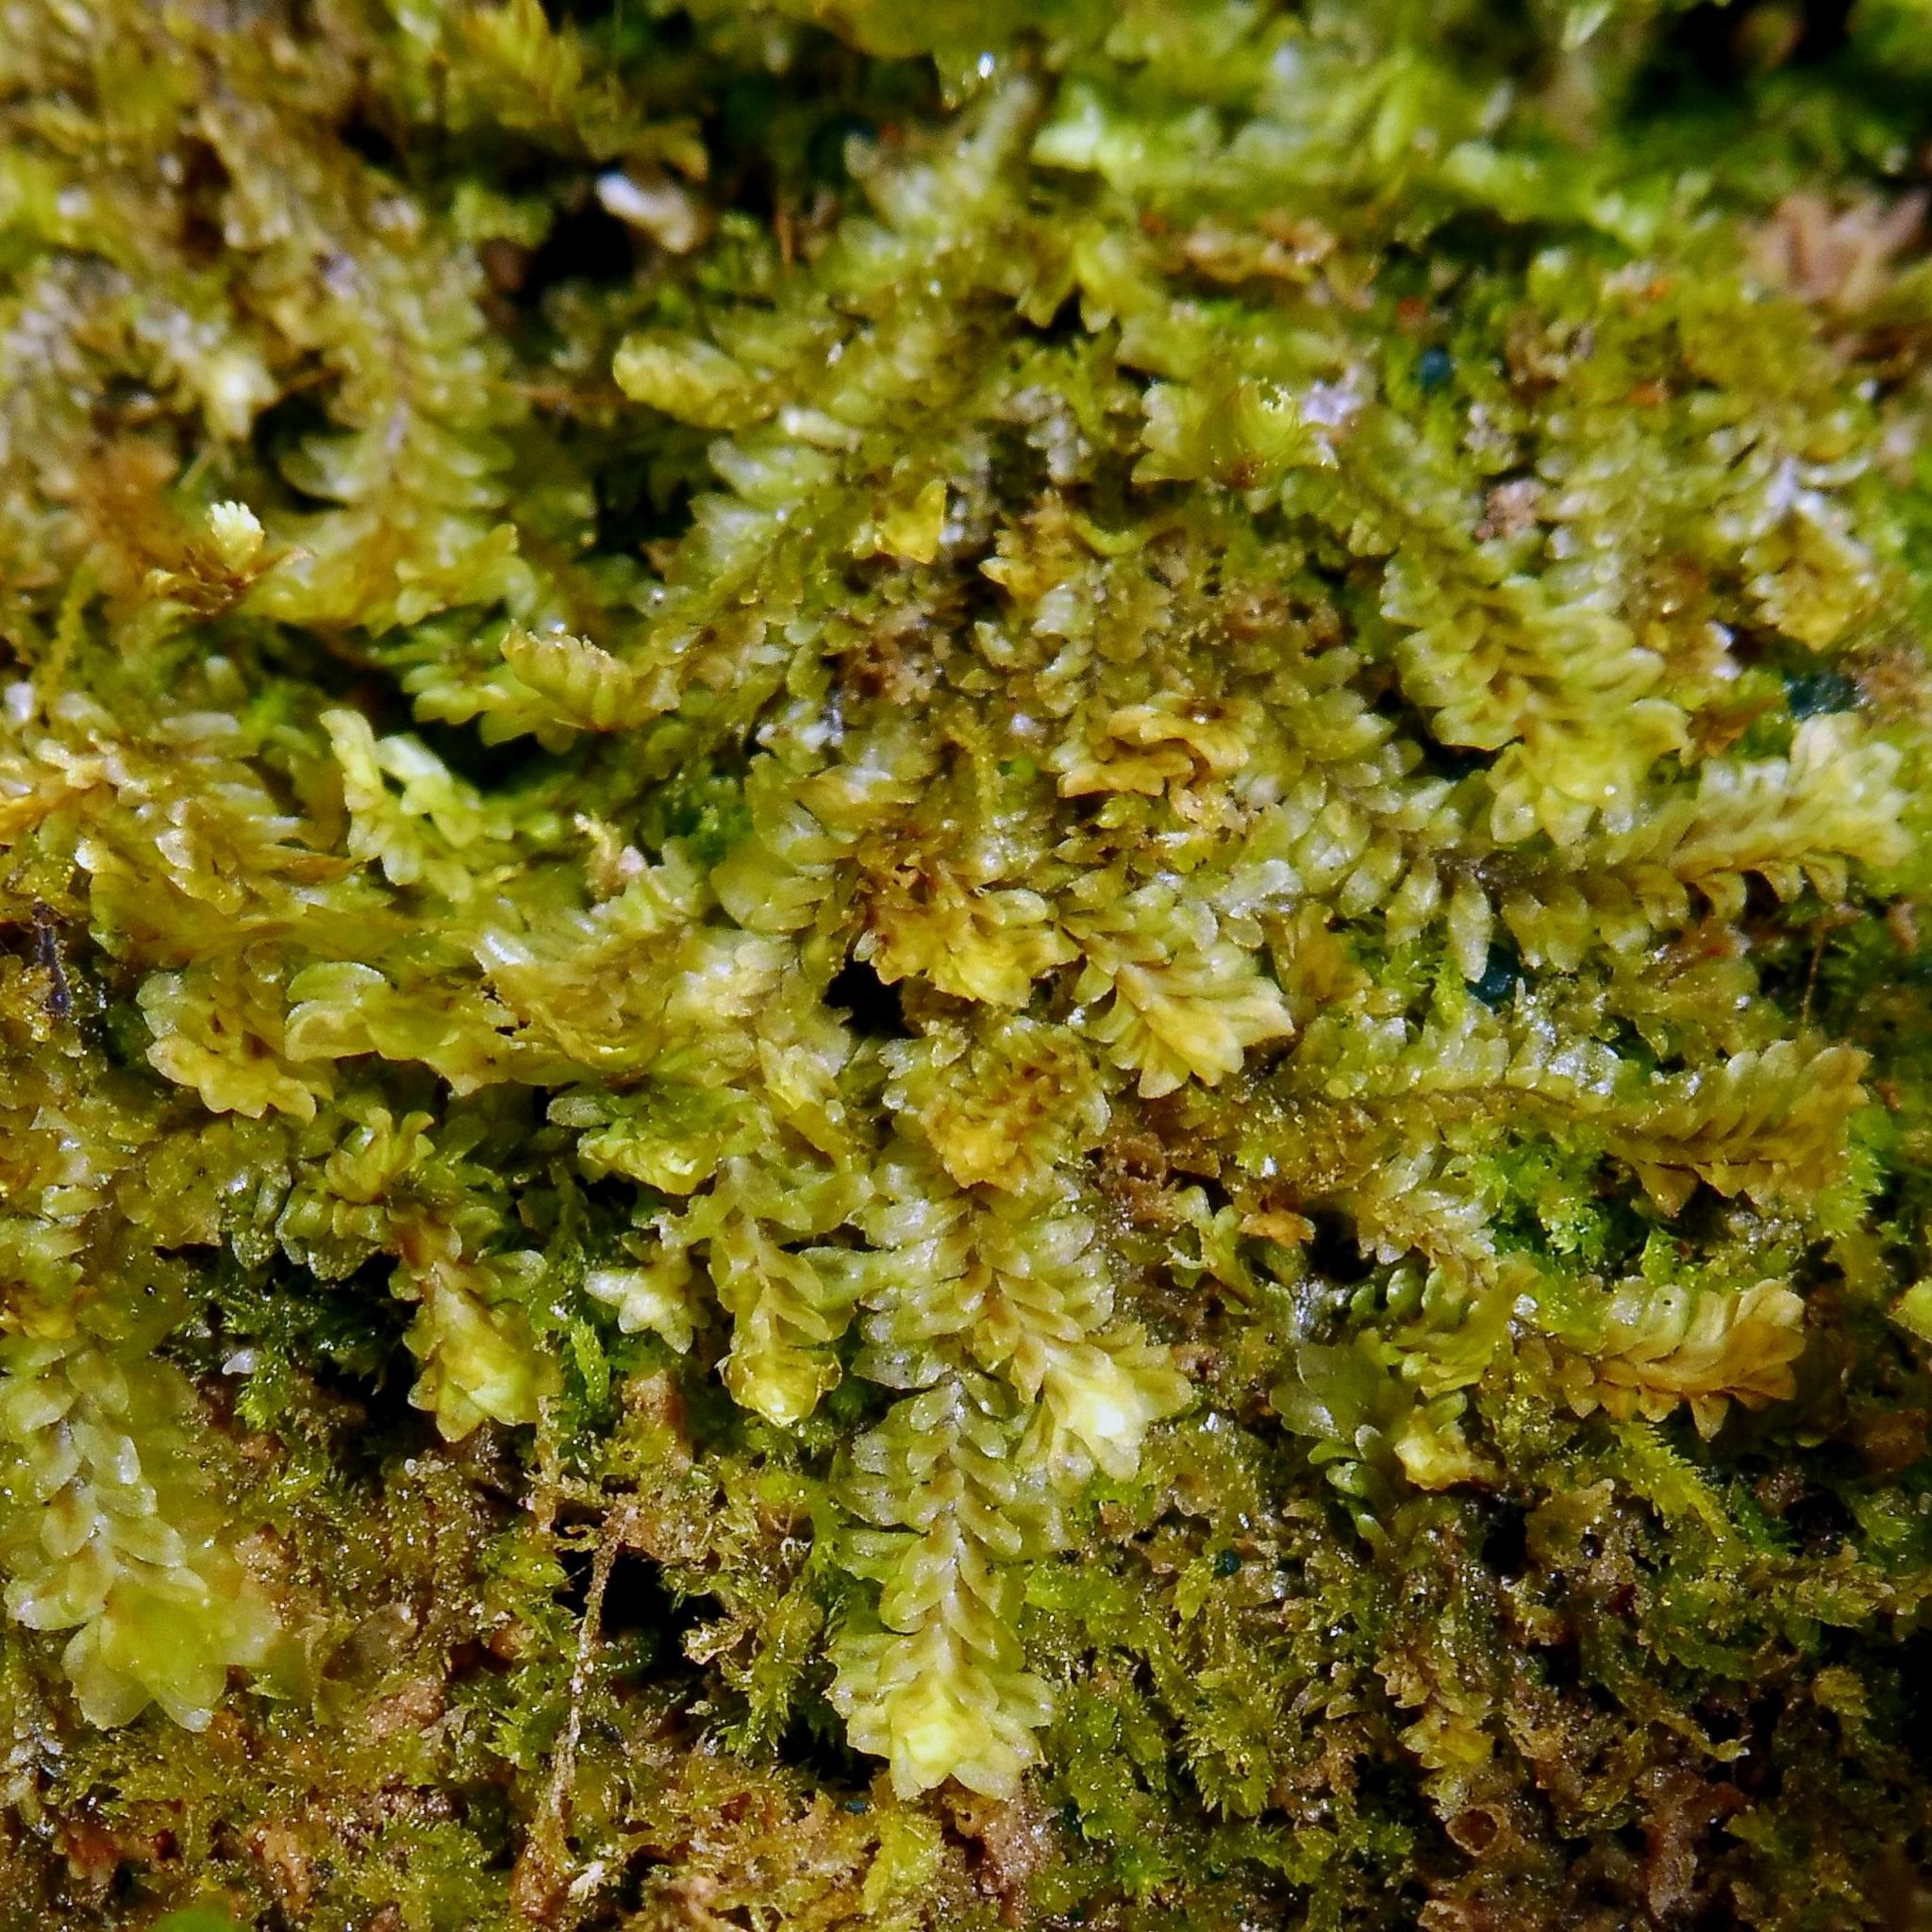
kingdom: Plantae
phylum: Marchantiophyta
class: Jungermanniopsida
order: Jungermanniales
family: Scapaniaceae
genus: Diplophyllum
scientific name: Diplophyllum albicans
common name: White earwort
